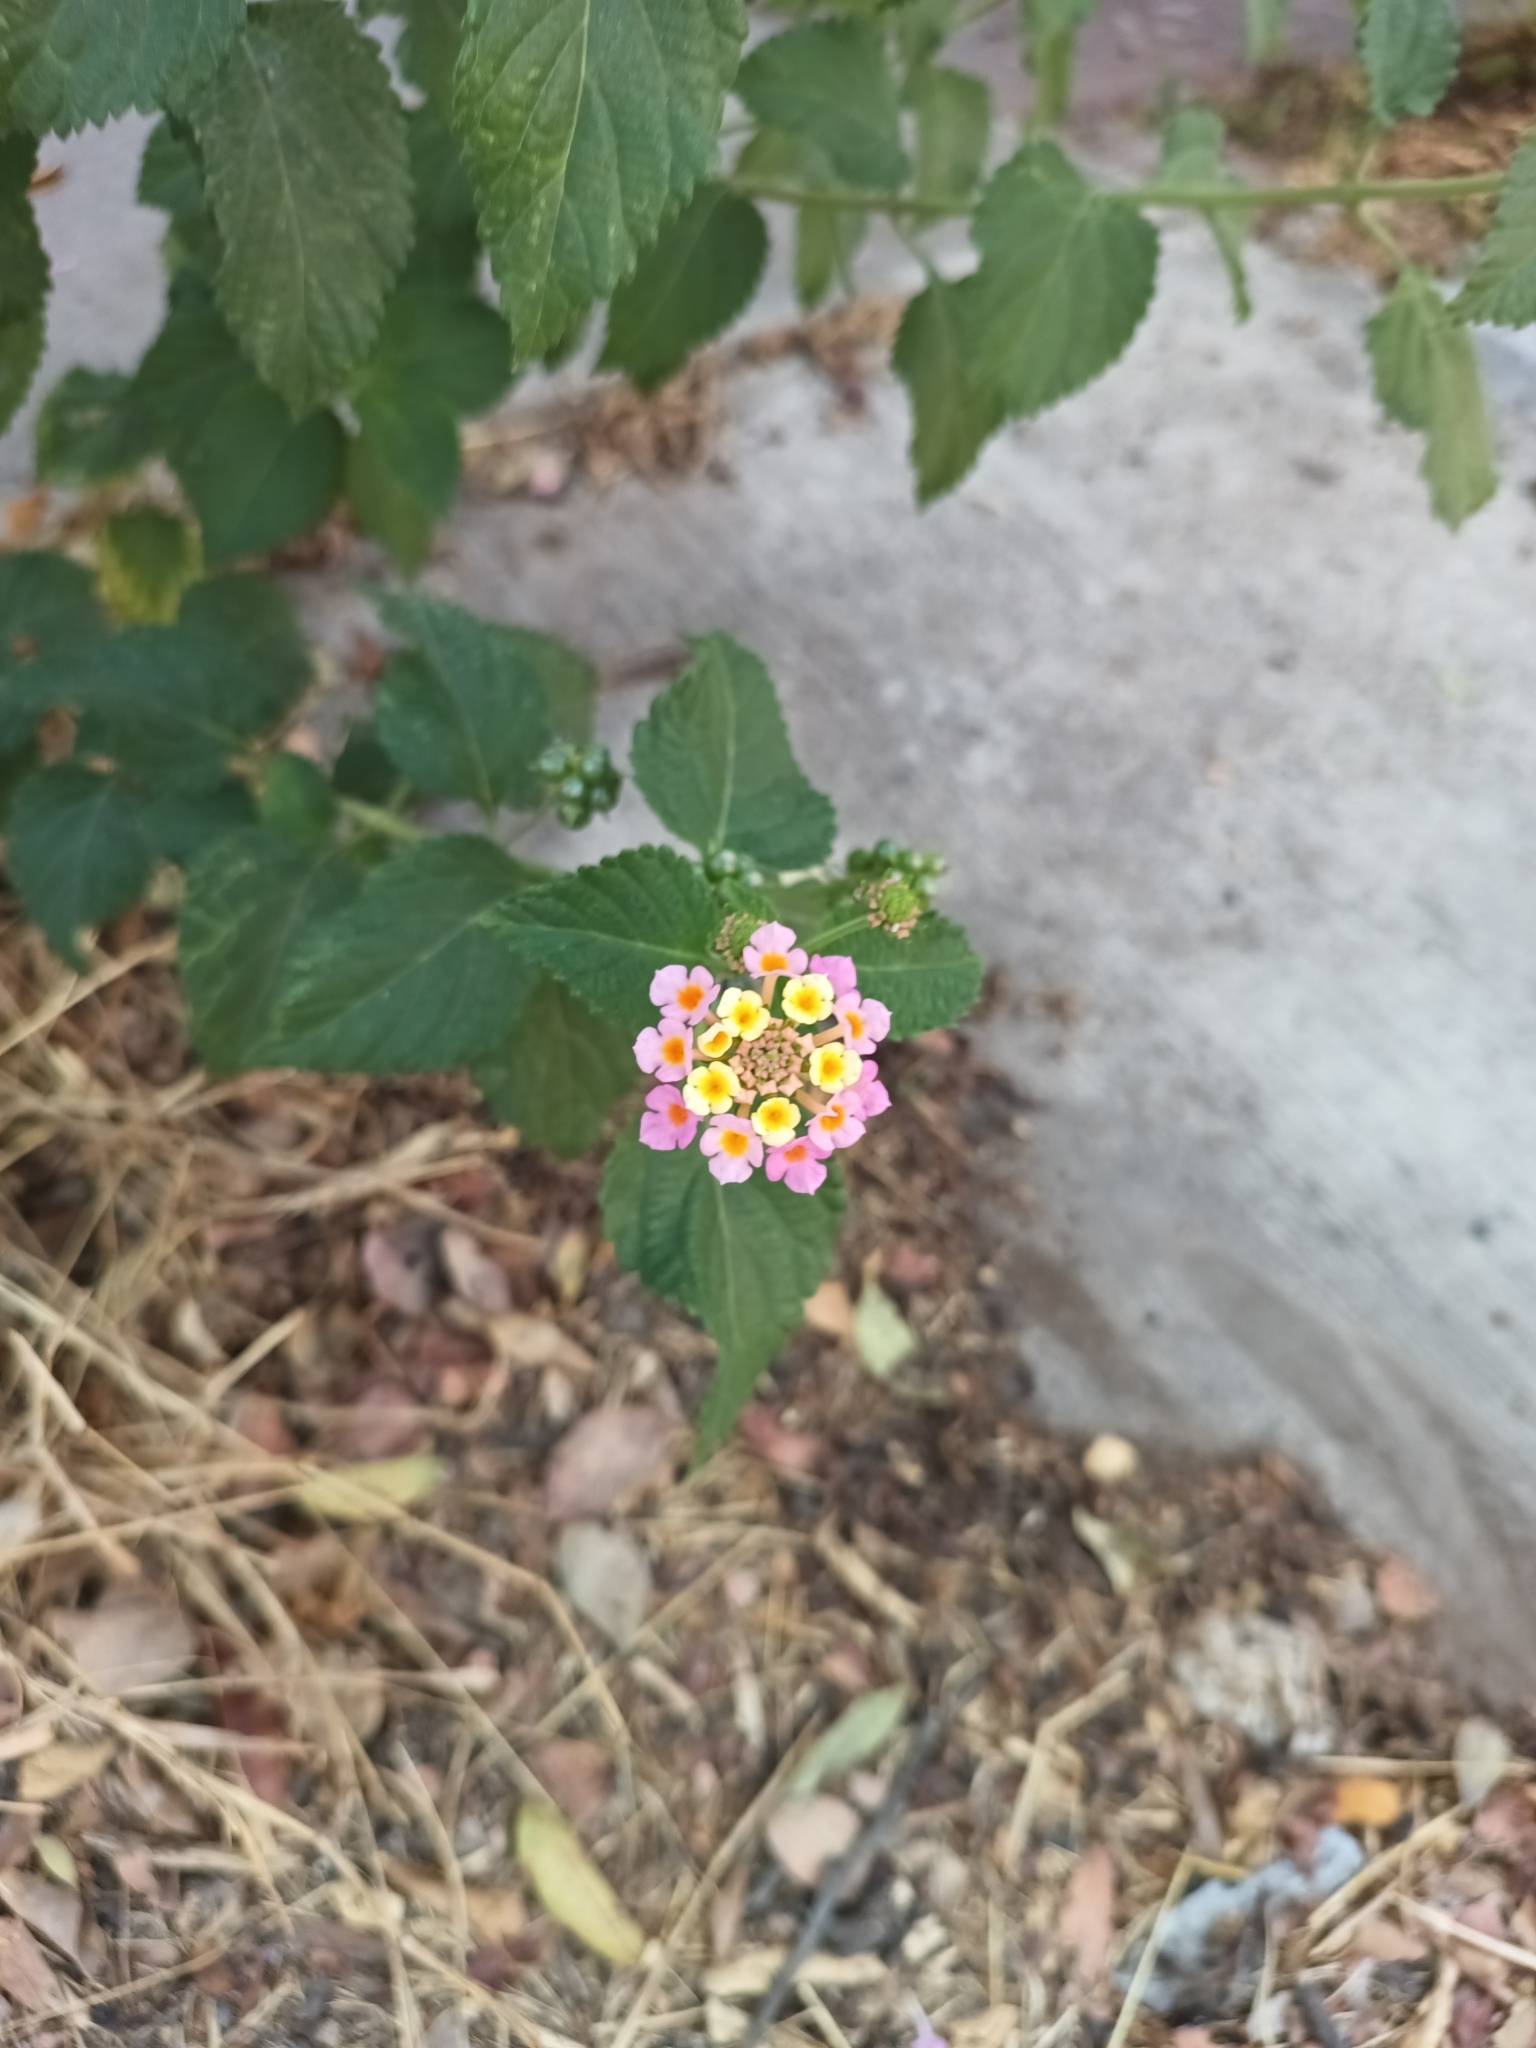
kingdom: Plantae
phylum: Tracheophyta
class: Magnoliopsida
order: Lamiales
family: Verbenaceae
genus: Lantana
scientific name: Lantana strigocamara
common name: Lantana
